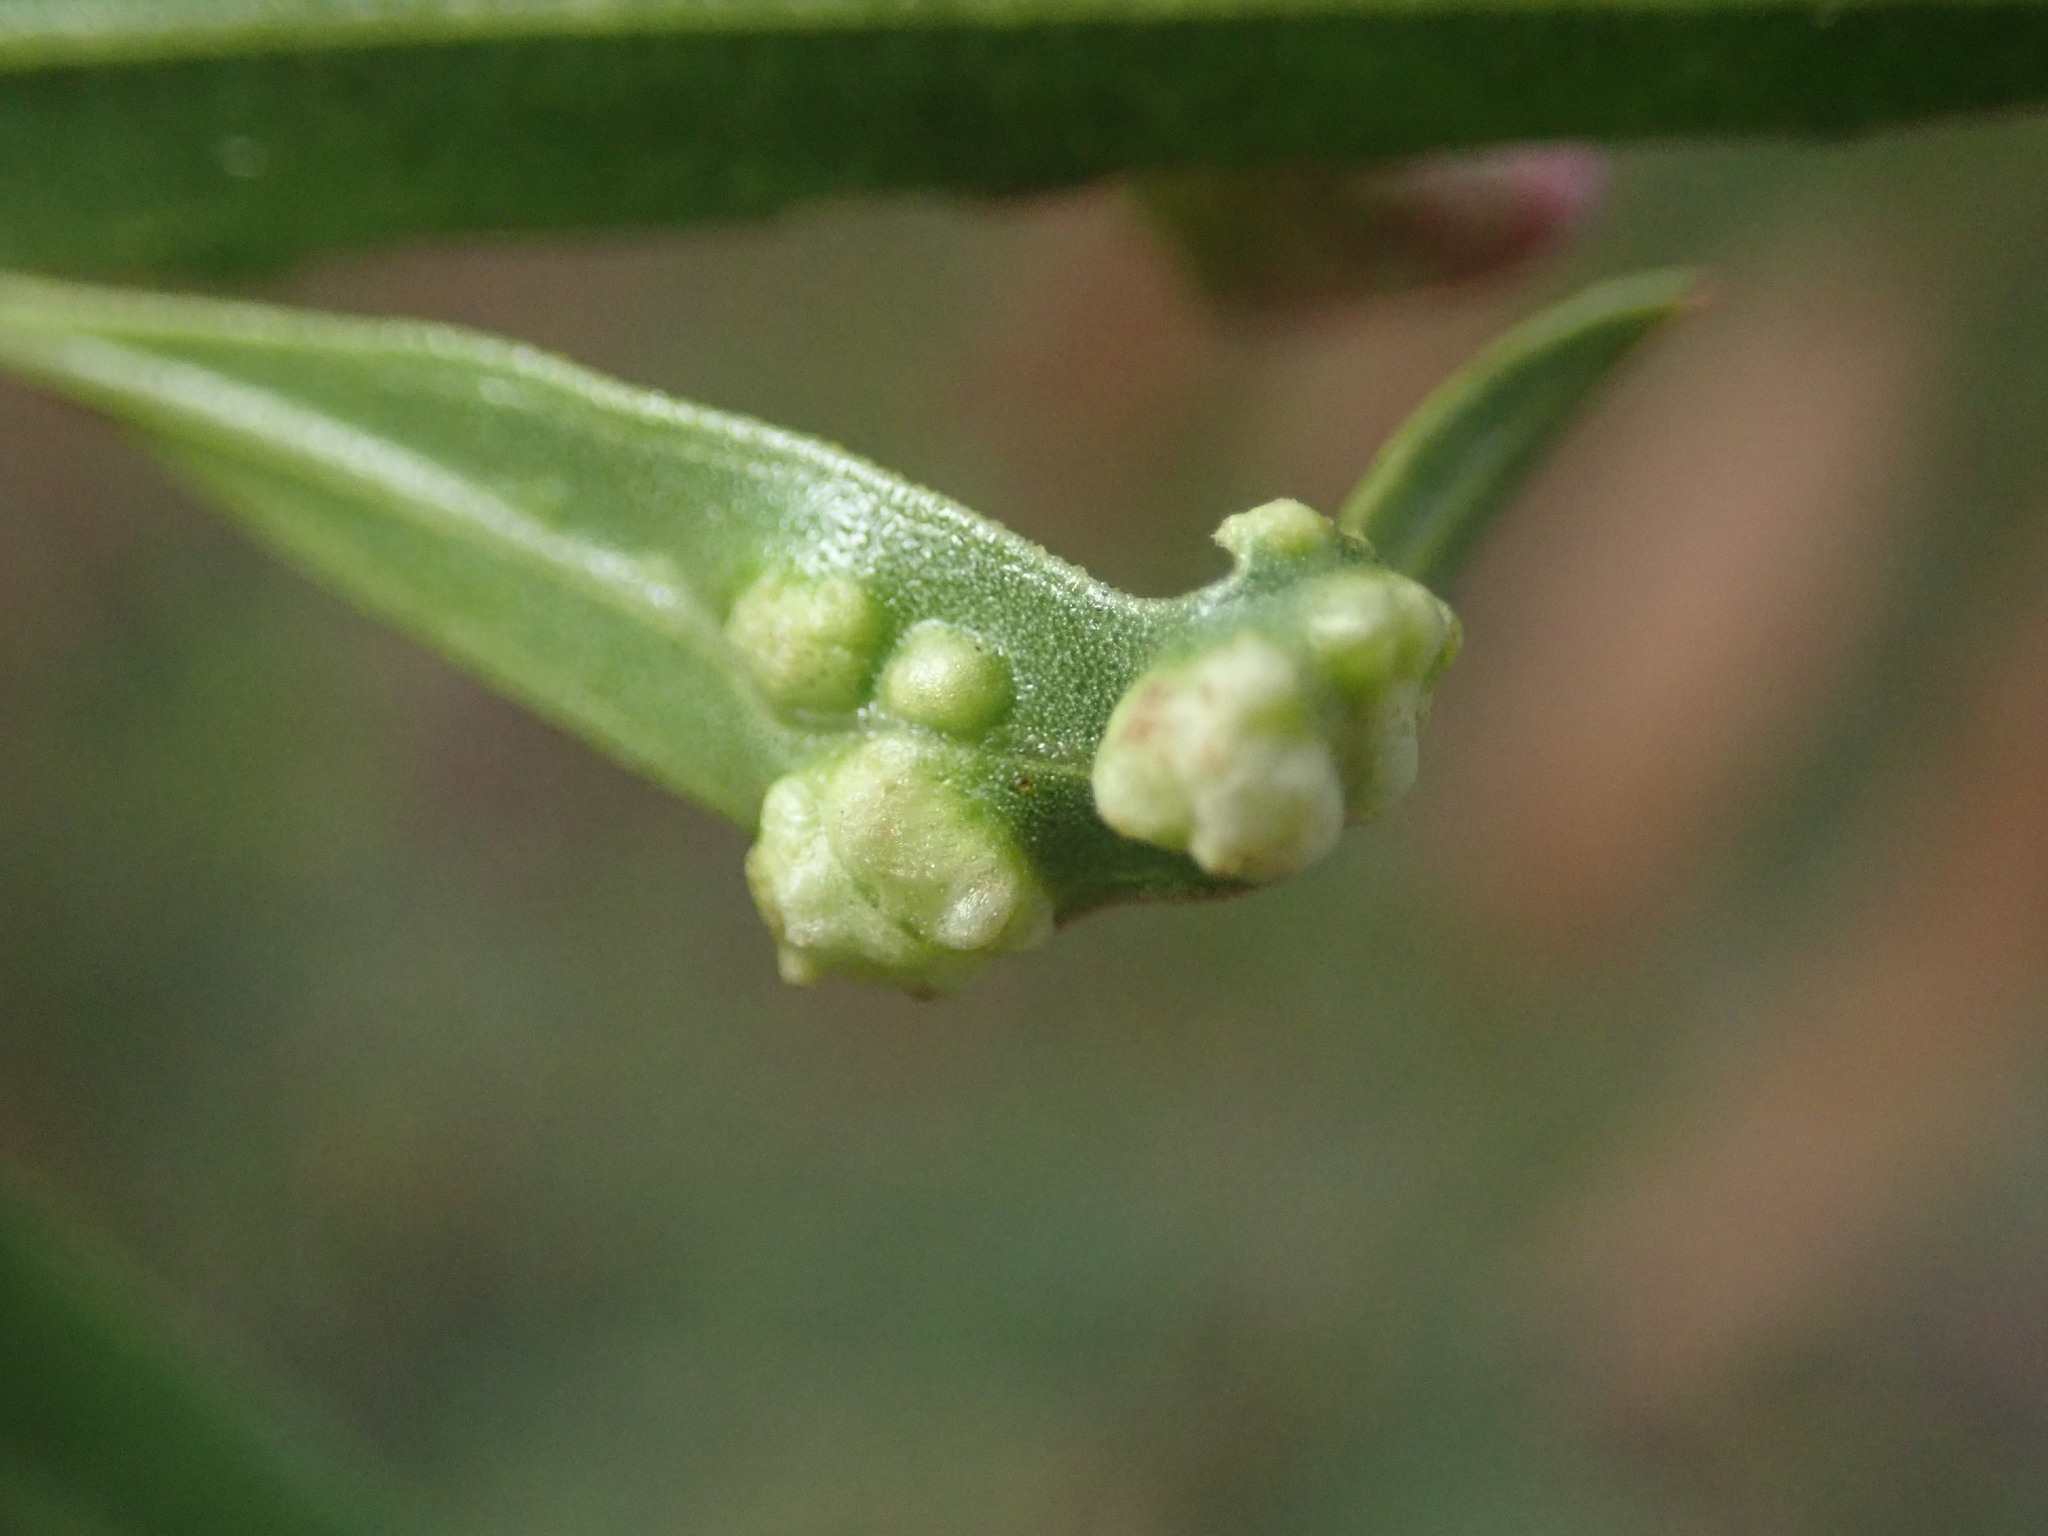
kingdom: Animalia
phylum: Arthropoda
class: Arachnida
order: Trombidiformes
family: Eriophyidae
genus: Aceria
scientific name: Aceria
